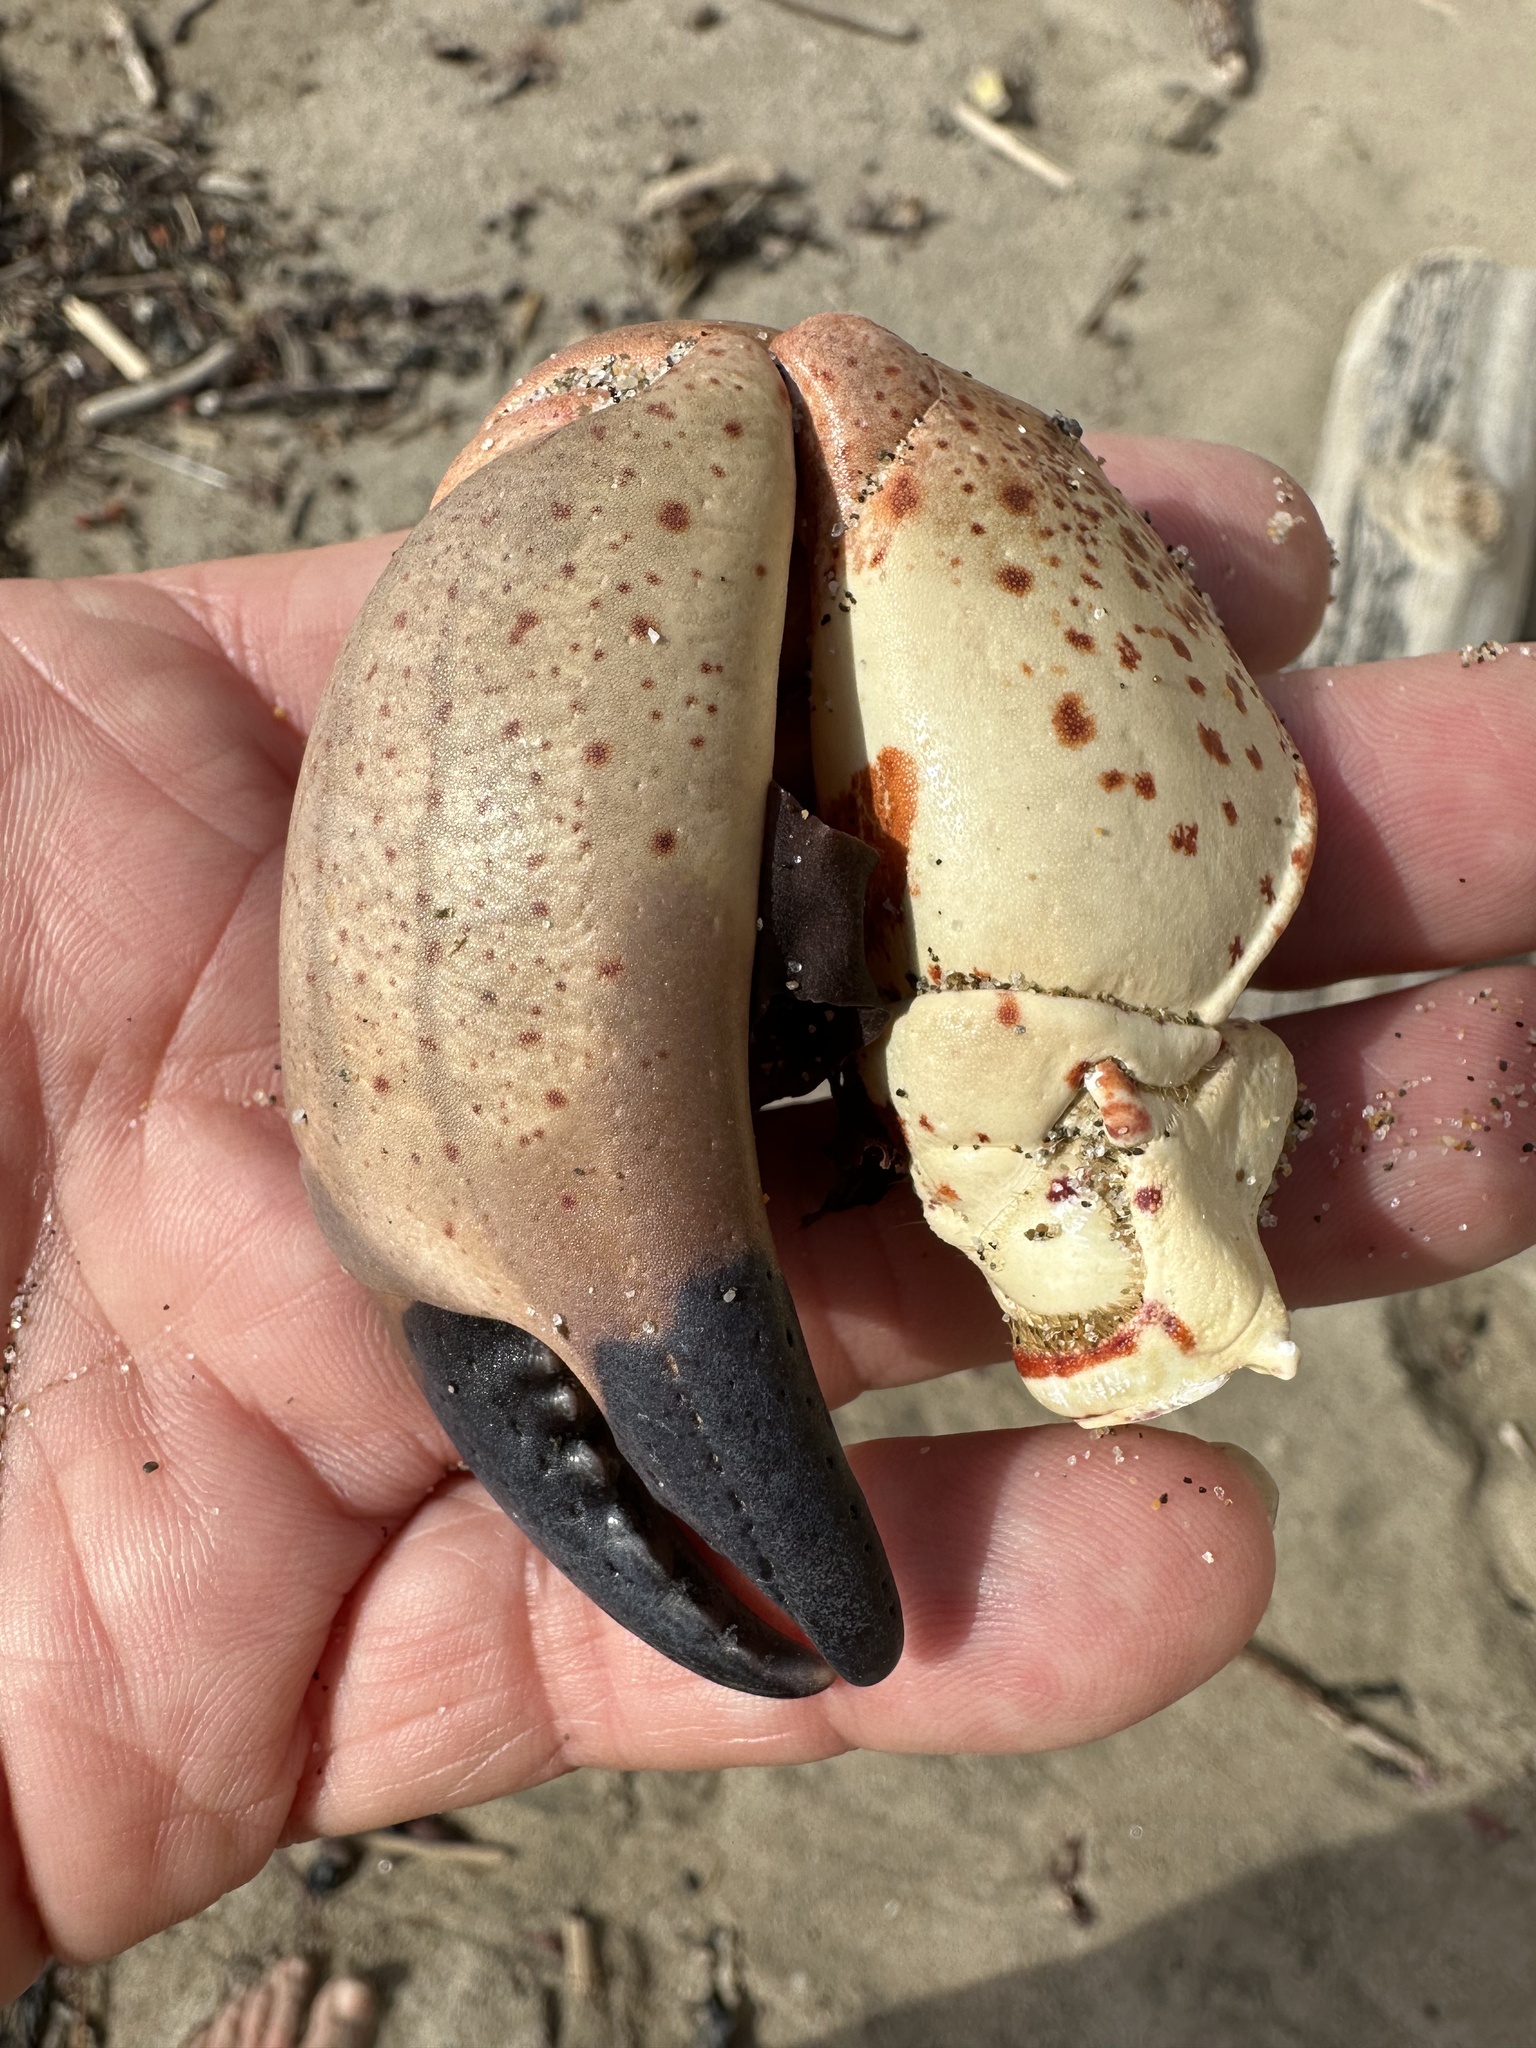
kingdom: Animalia
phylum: Arthropoda
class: Malacostraca
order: Decapoda
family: Cancridae
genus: Romaleon
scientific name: Romaleon antennarium
